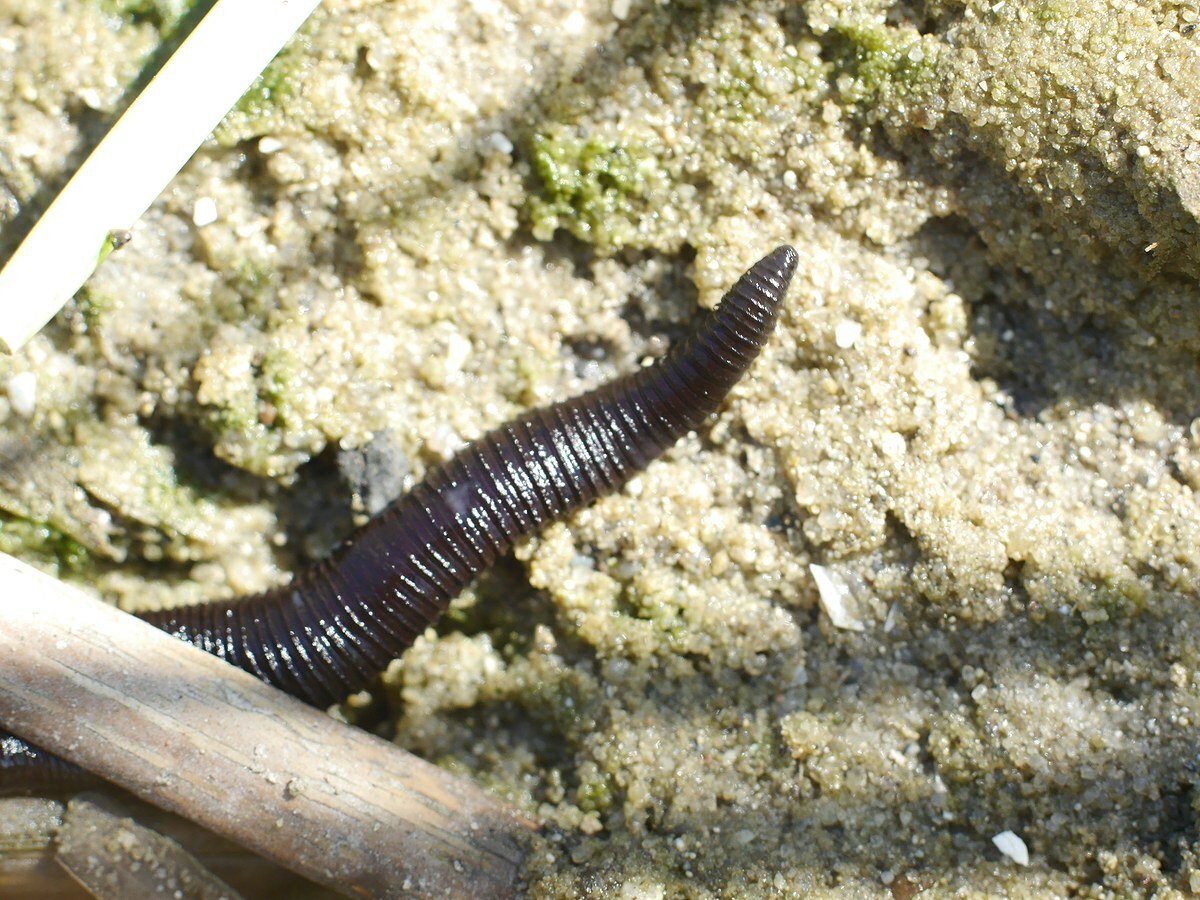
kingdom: Animalia
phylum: Annelida
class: Clitellata
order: Arhynchobdellida
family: Haemopidae
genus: Haemopis
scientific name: Haemopis sanguisuga
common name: Horse leech
